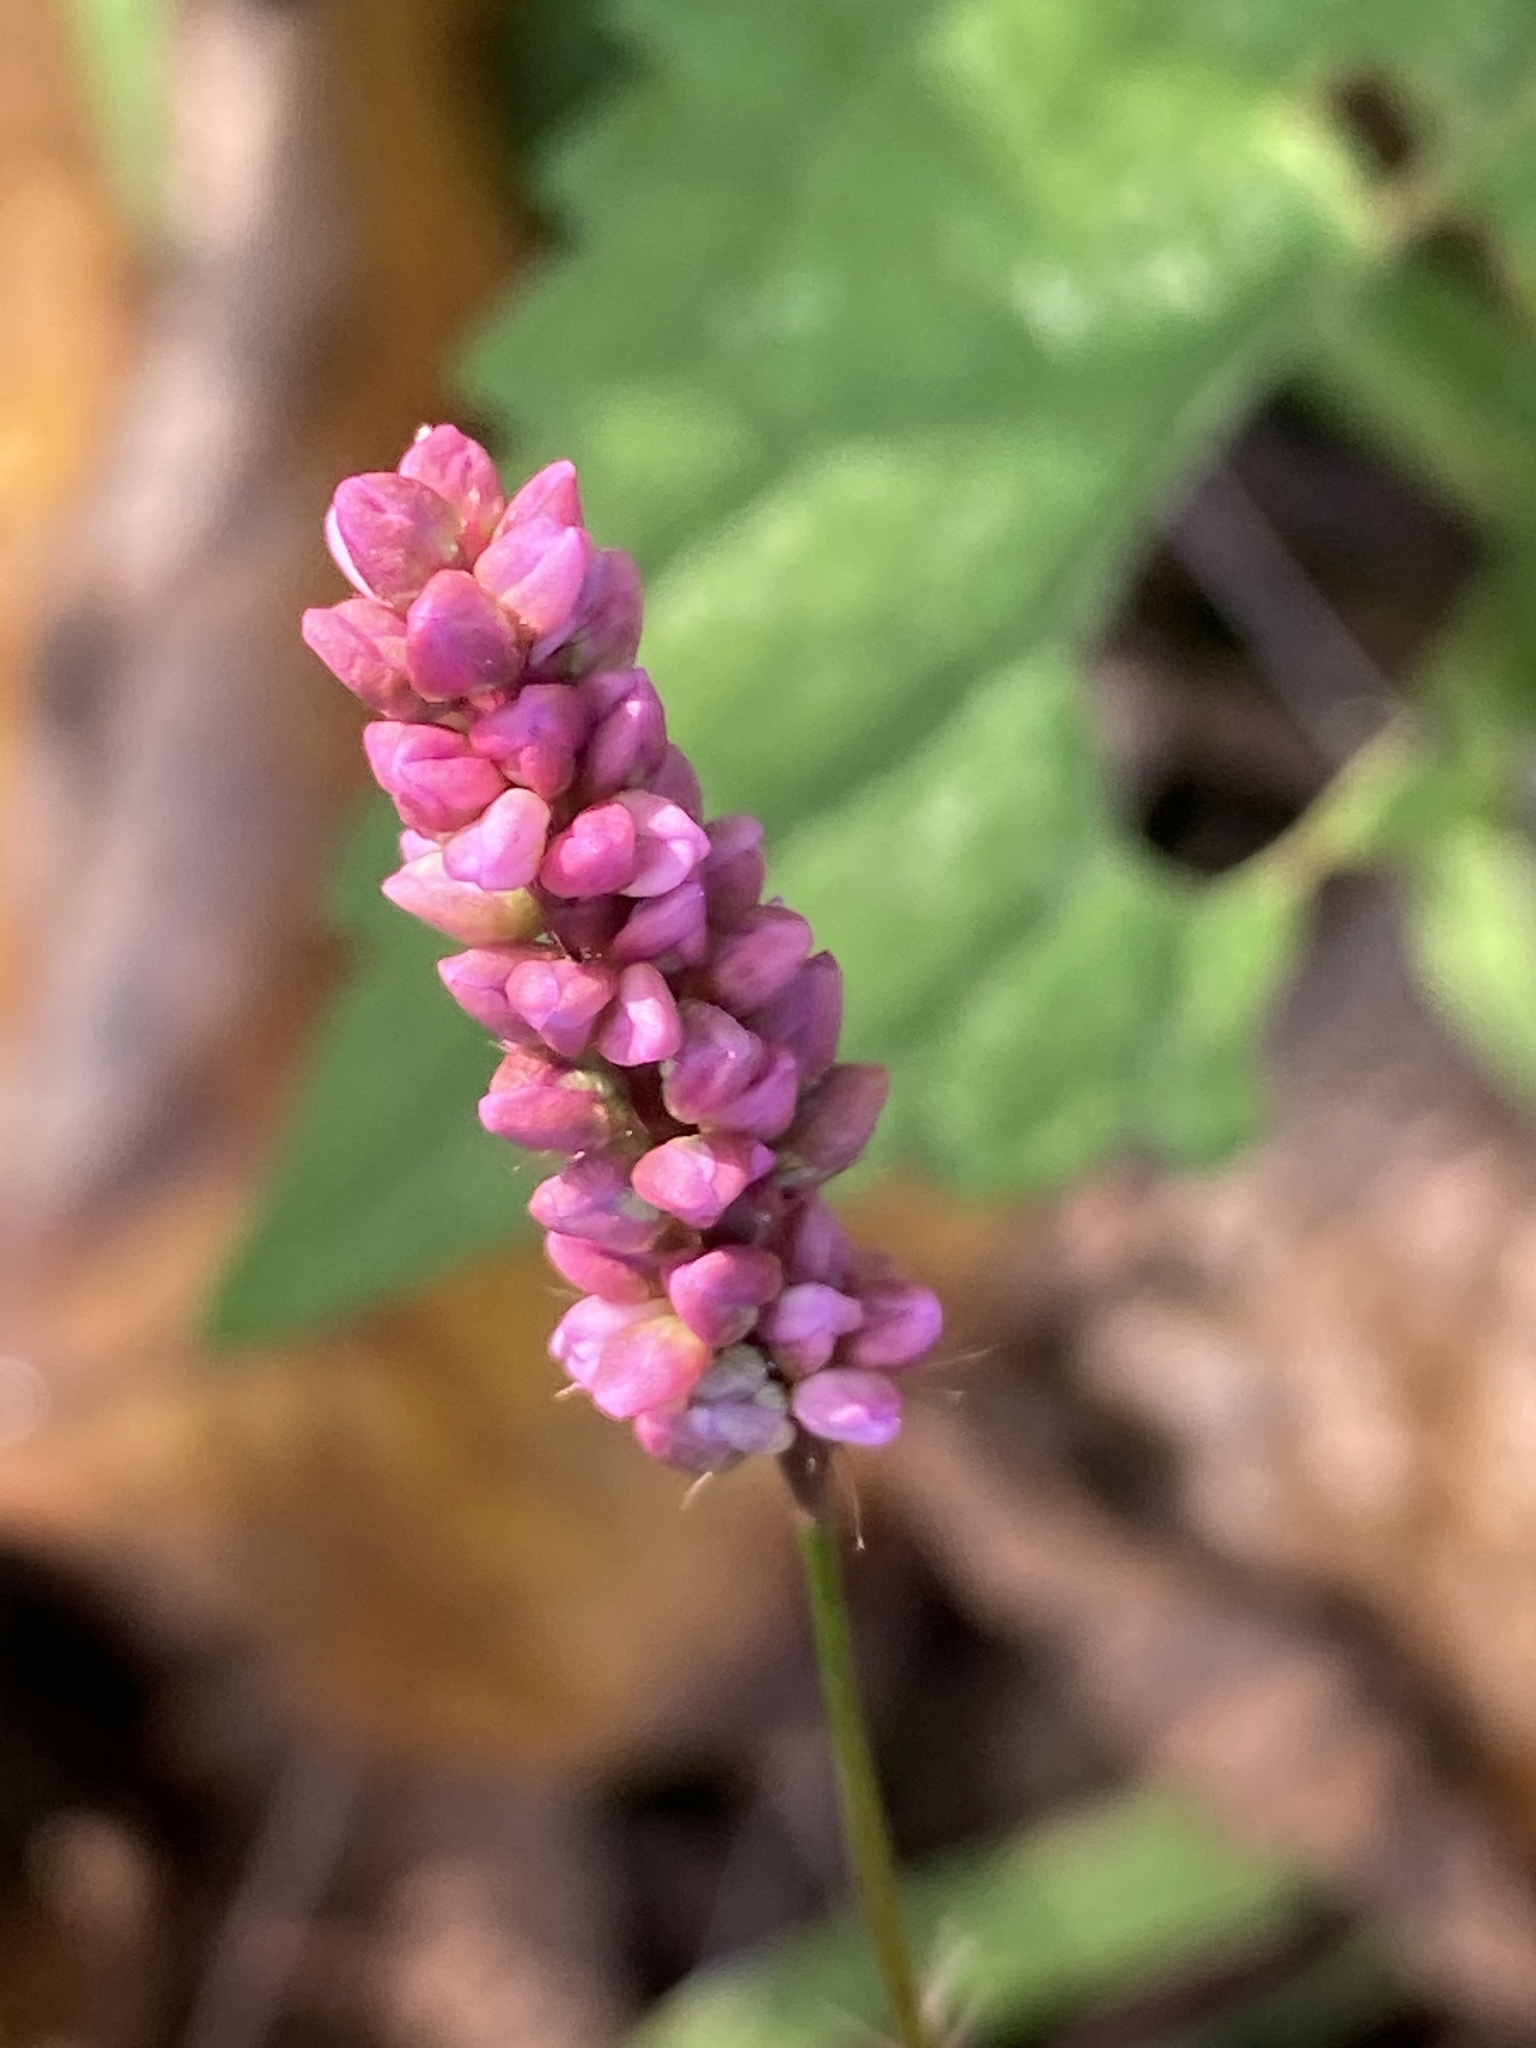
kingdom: Plantae
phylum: Tracheophyta
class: Magnoliopsida
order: Caryophyllales
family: Polygonaceae
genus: Persicaria
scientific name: Persicaria longiseta
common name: Bristly lady's-thumb
